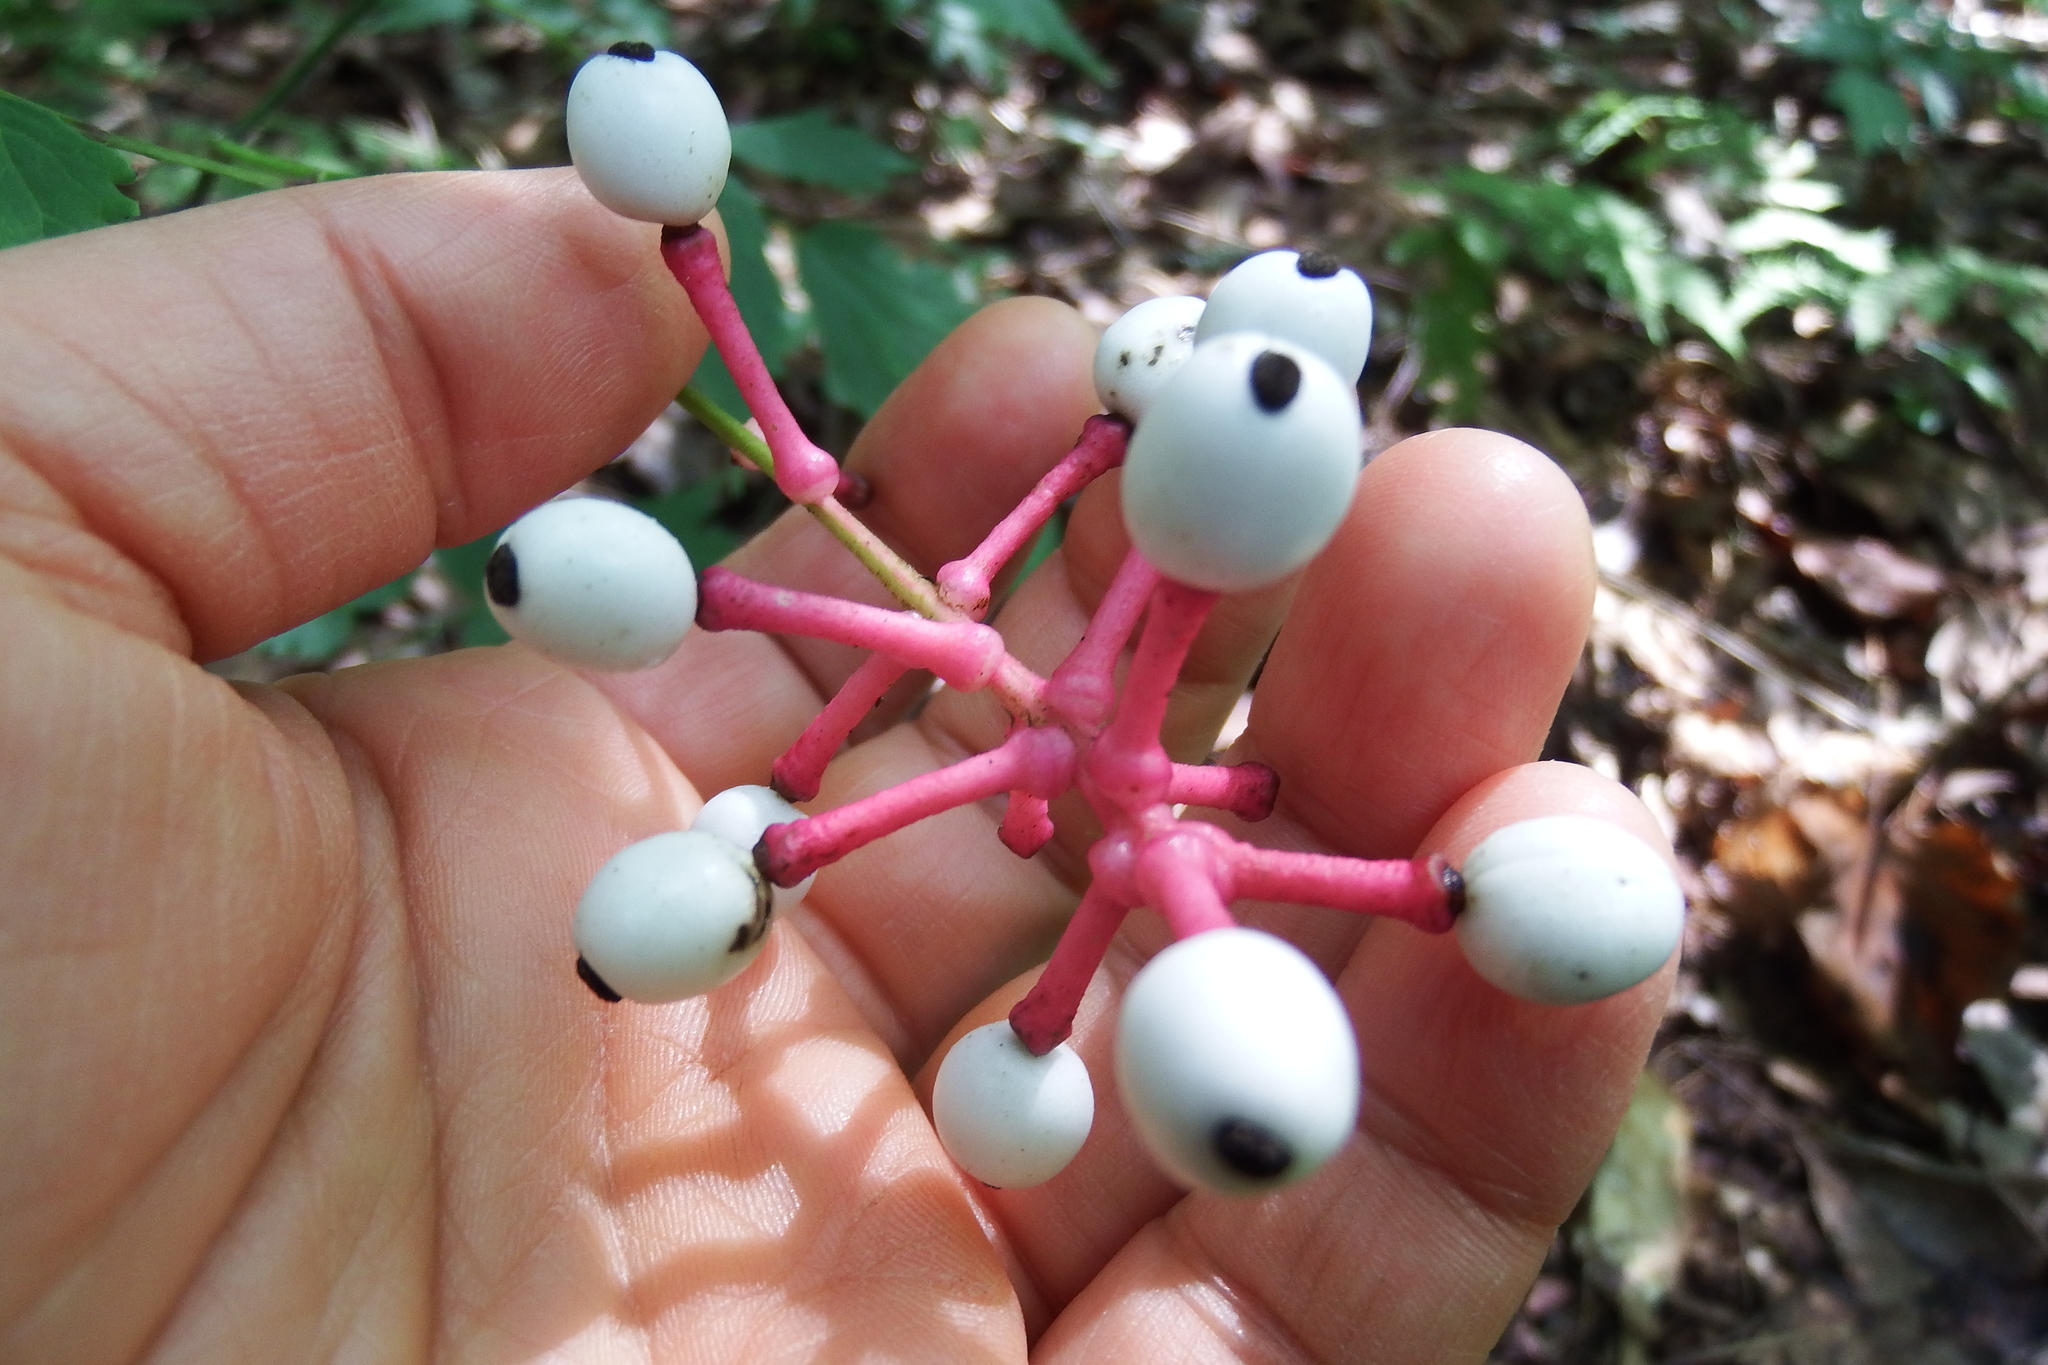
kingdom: Plantae
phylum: Tracheophyta
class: Magnoliopsida
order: Ranunculales
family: Ranunculaceae
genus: Actaea
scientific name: Actaea pachypoda
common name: Doll's-eyes
